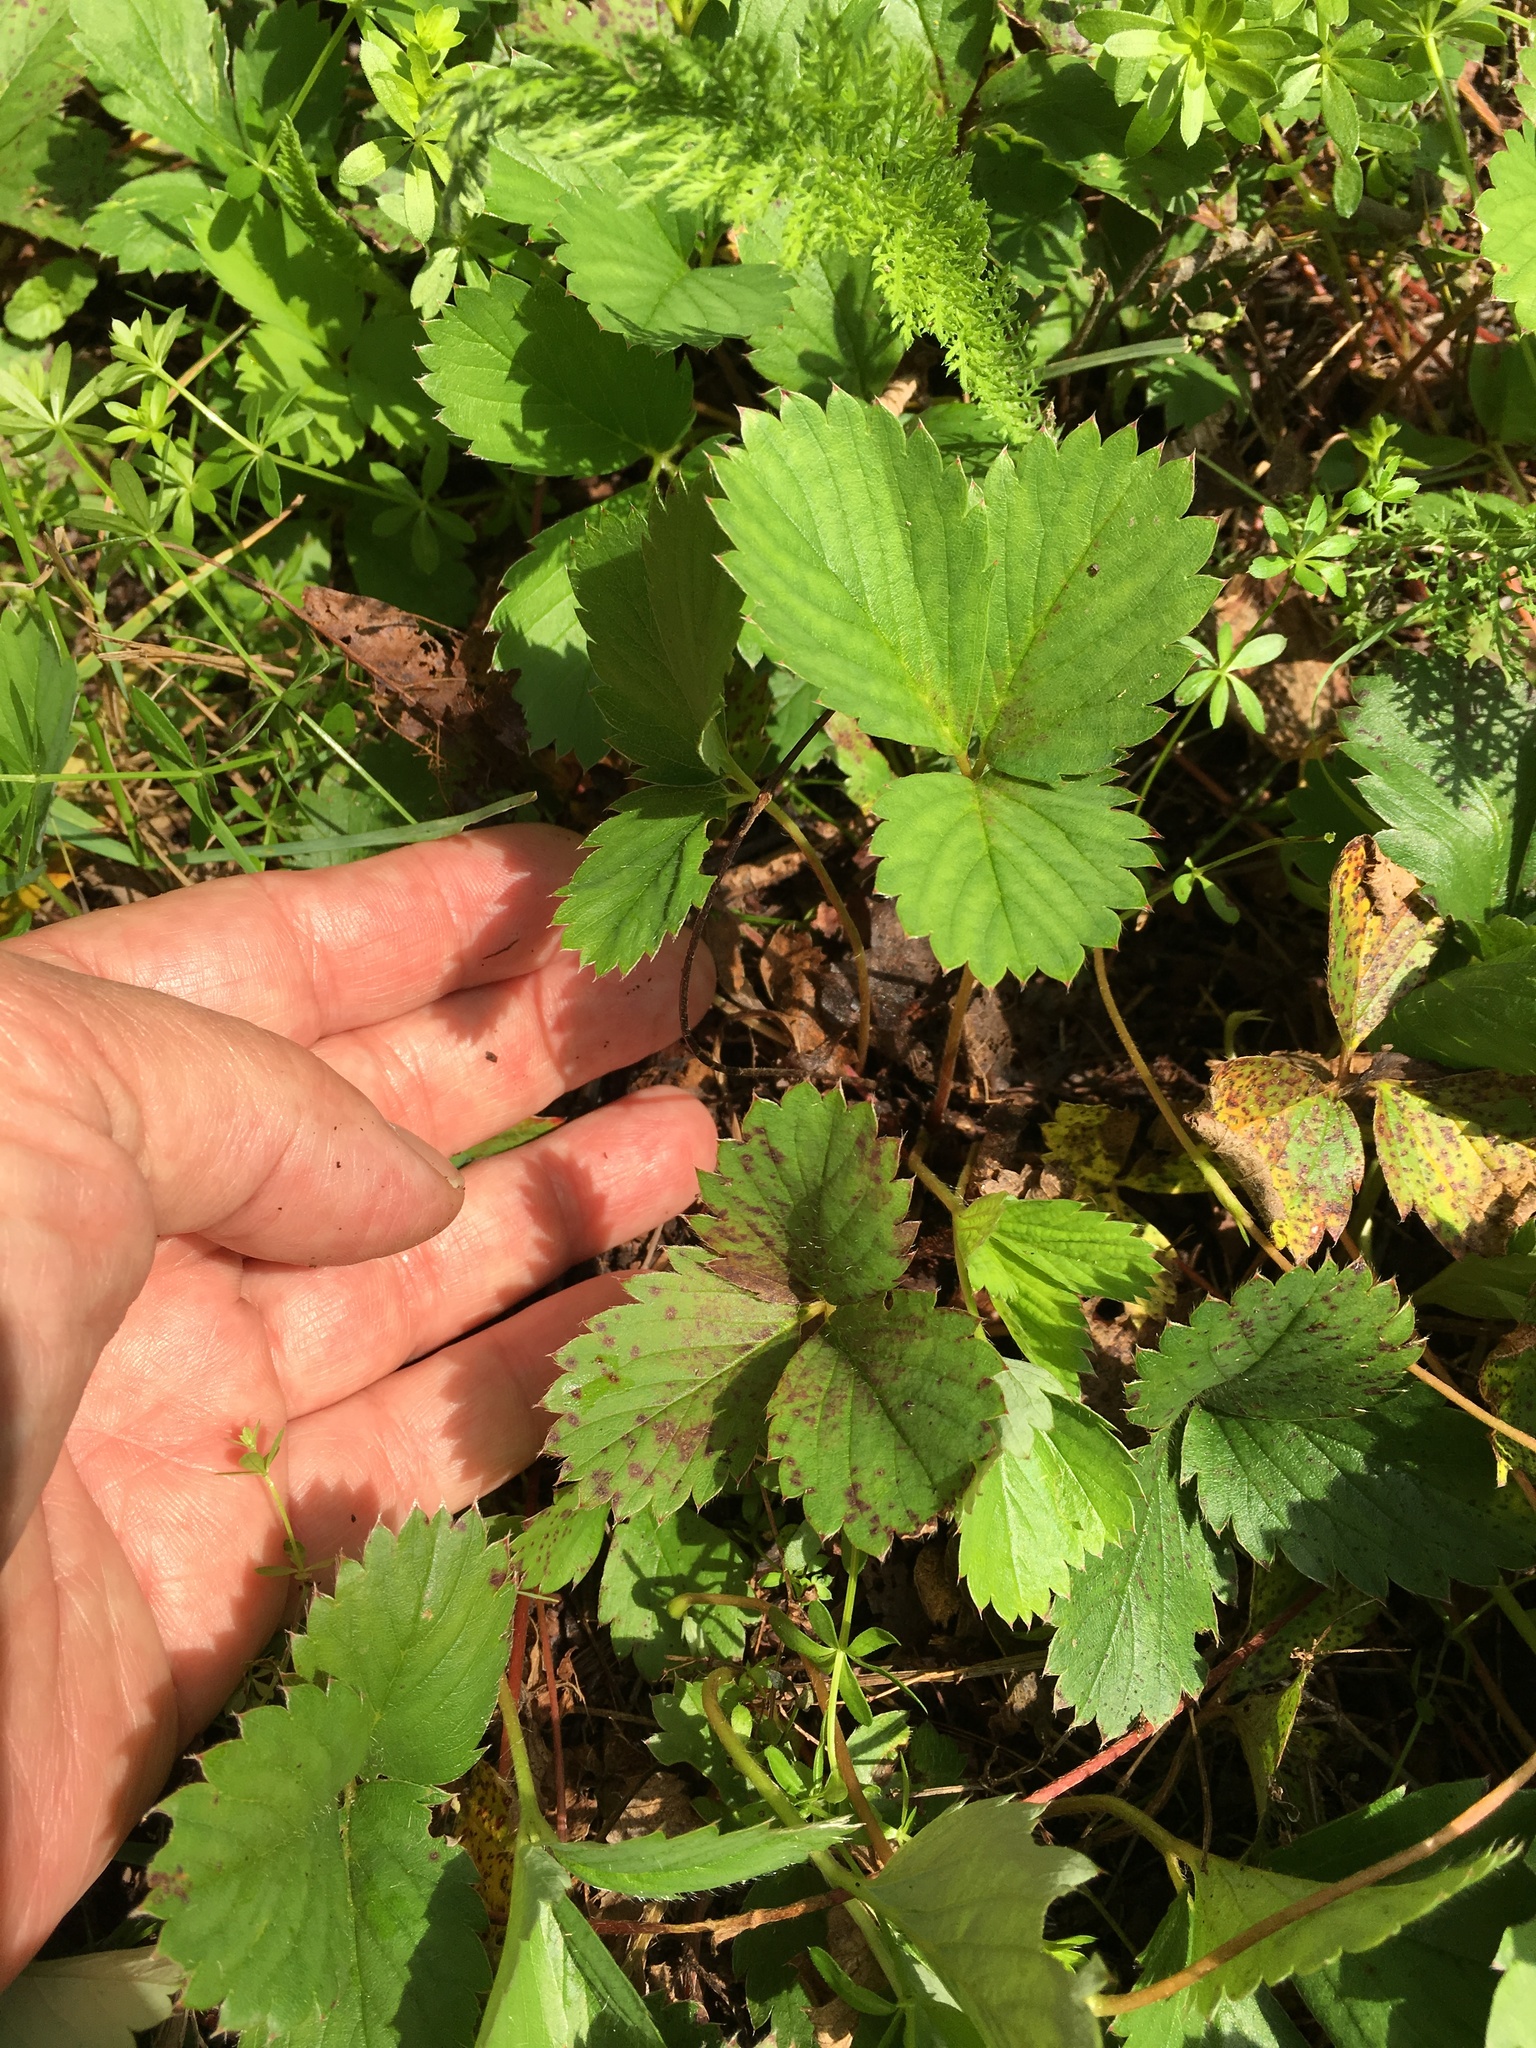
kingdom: Plantae
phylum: Tracheophyta
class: Magnoliopsida
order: Rosales
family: Rosaceae
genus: Fragaria
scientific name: Fragaria virginiana
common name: Thickleaved wild strawberry
